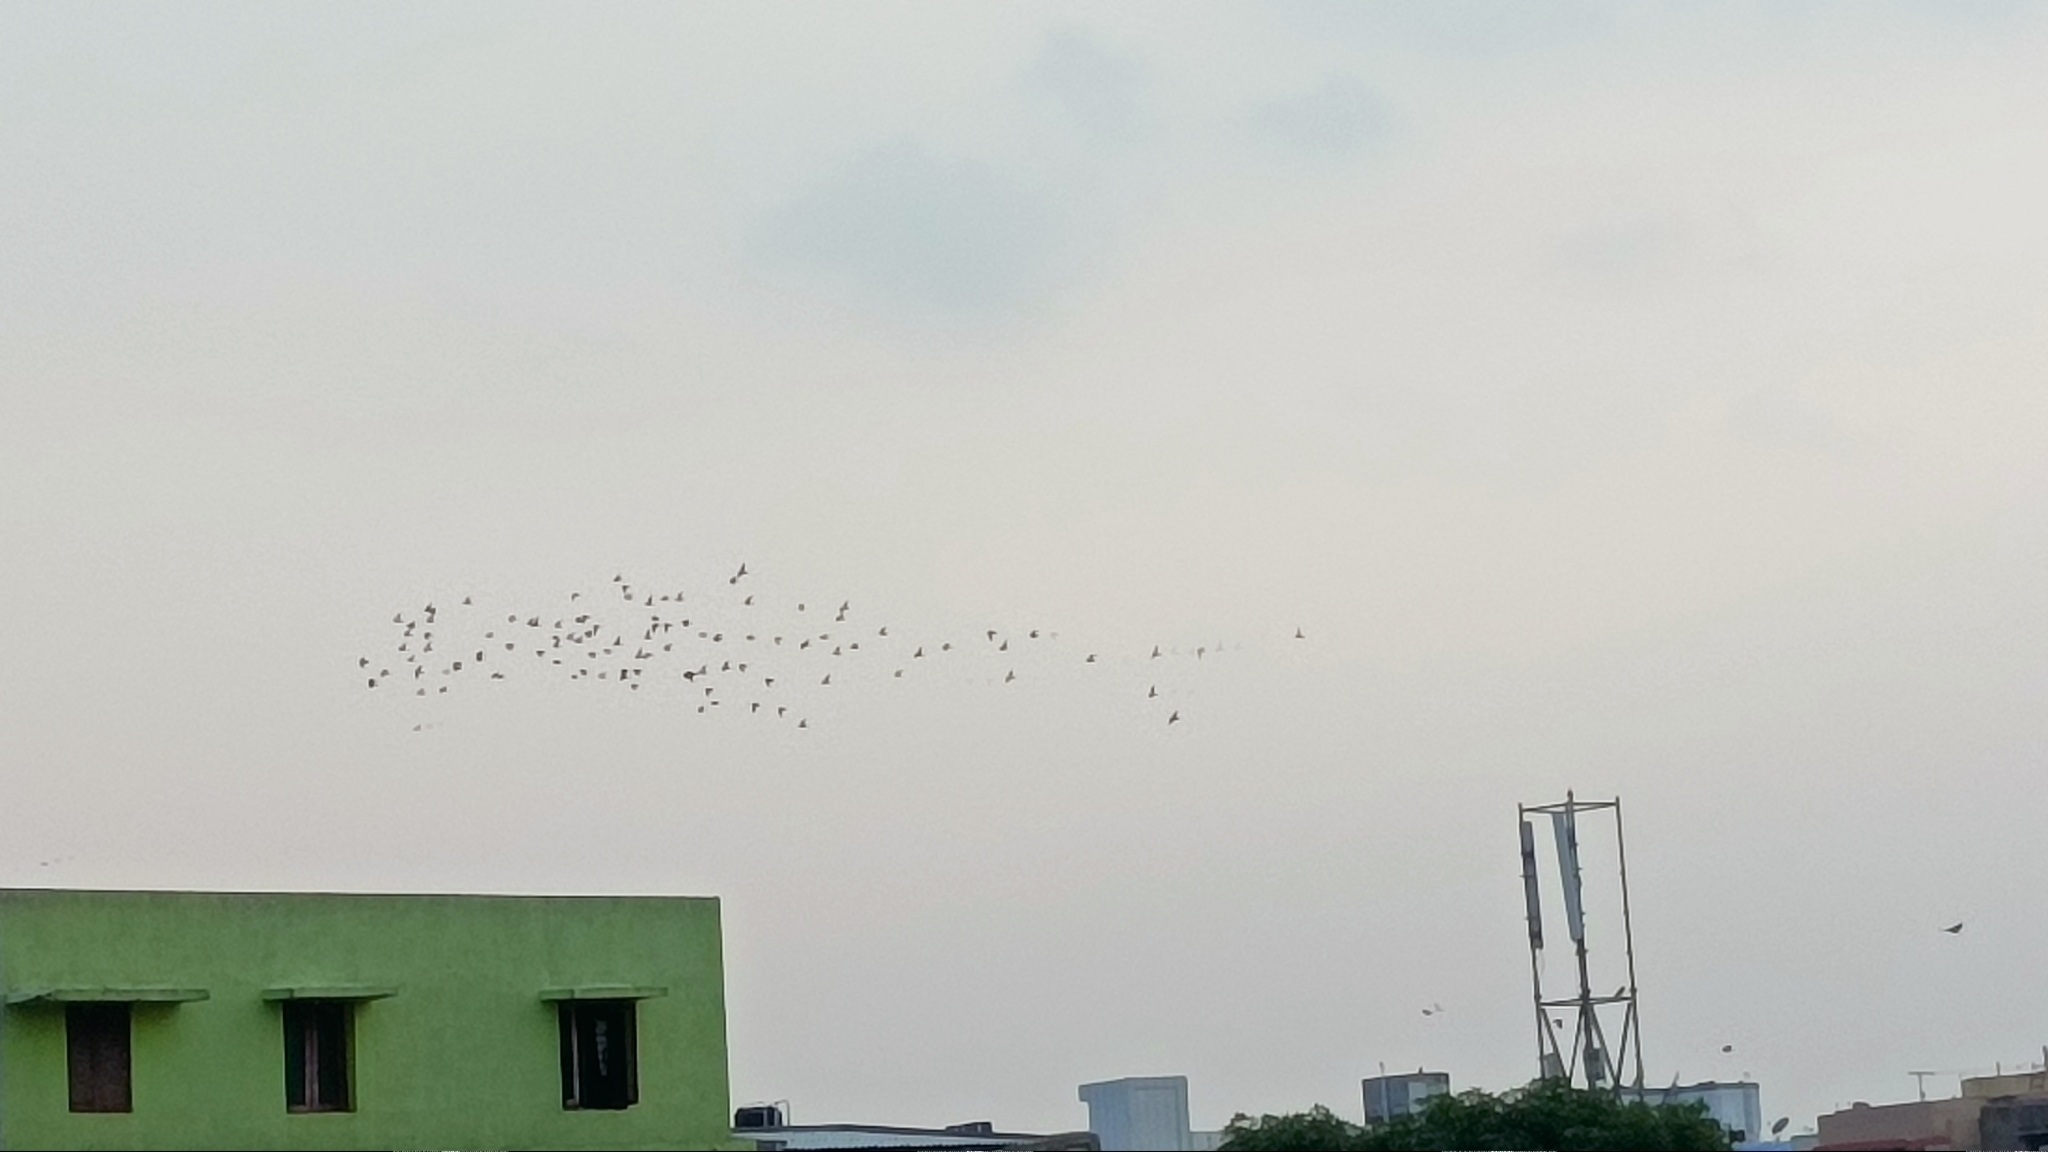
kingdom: Animalia
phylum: Chordata
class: Aves
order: Columbiformes
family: Columbidae
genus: Columba
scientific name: Columba livia
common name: Rock pigeon
